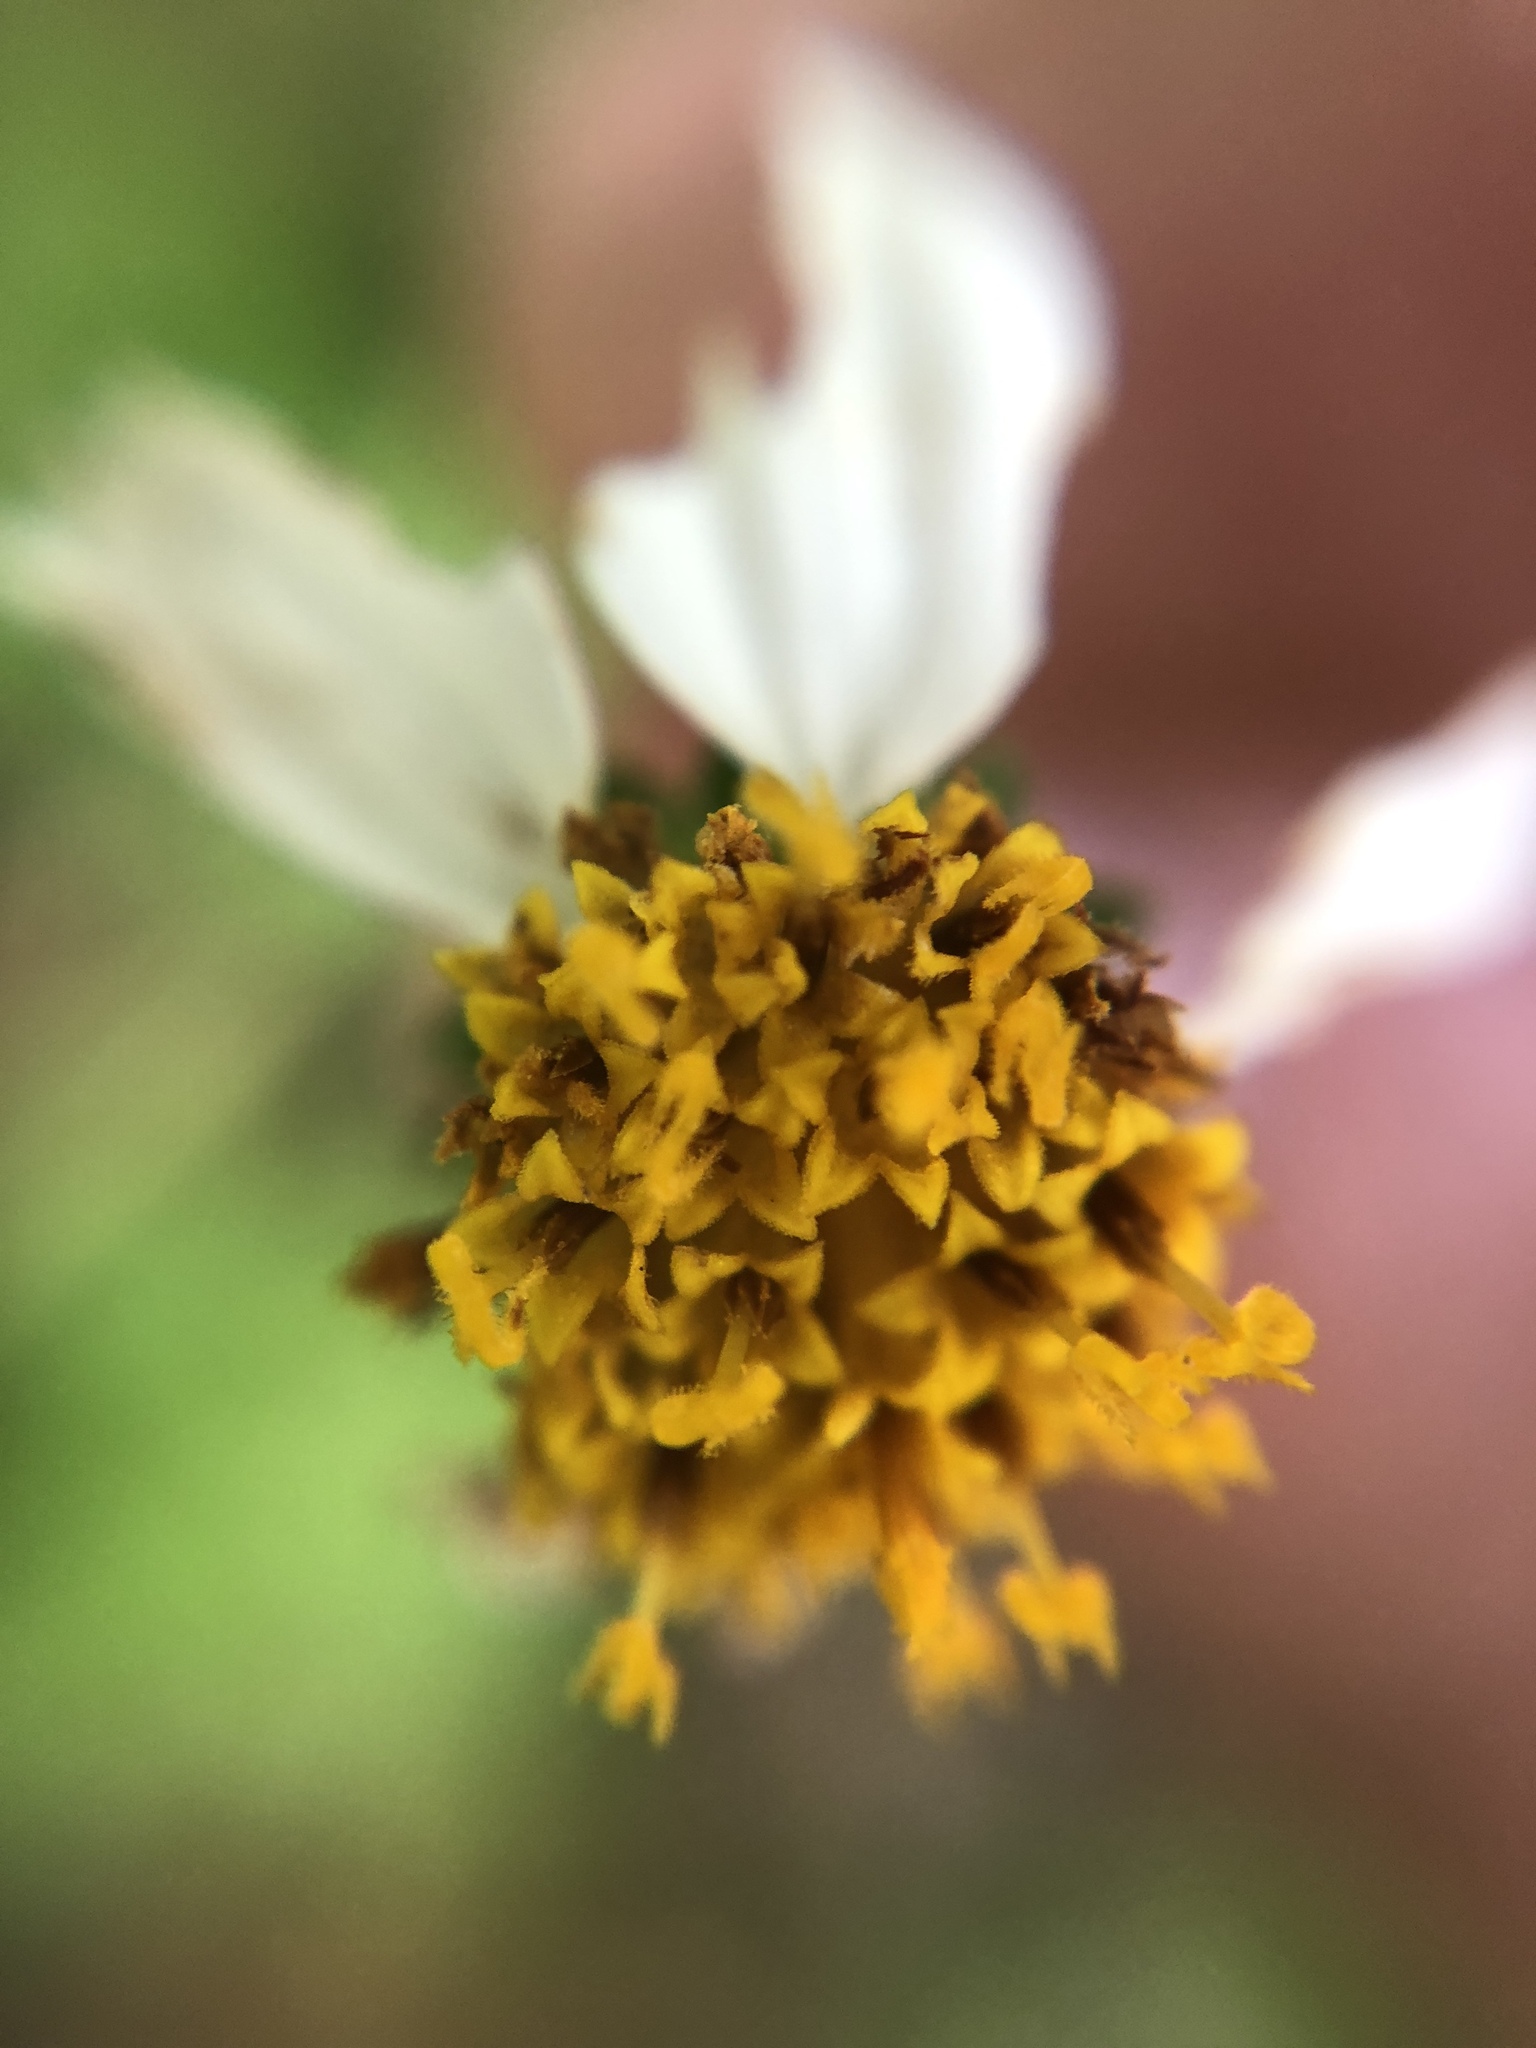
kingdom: Plantae
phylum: Tracheophyta
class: Magnoliopsida
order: Asterales
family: Asteraceae
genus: Bidens
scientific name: Bidens alba
